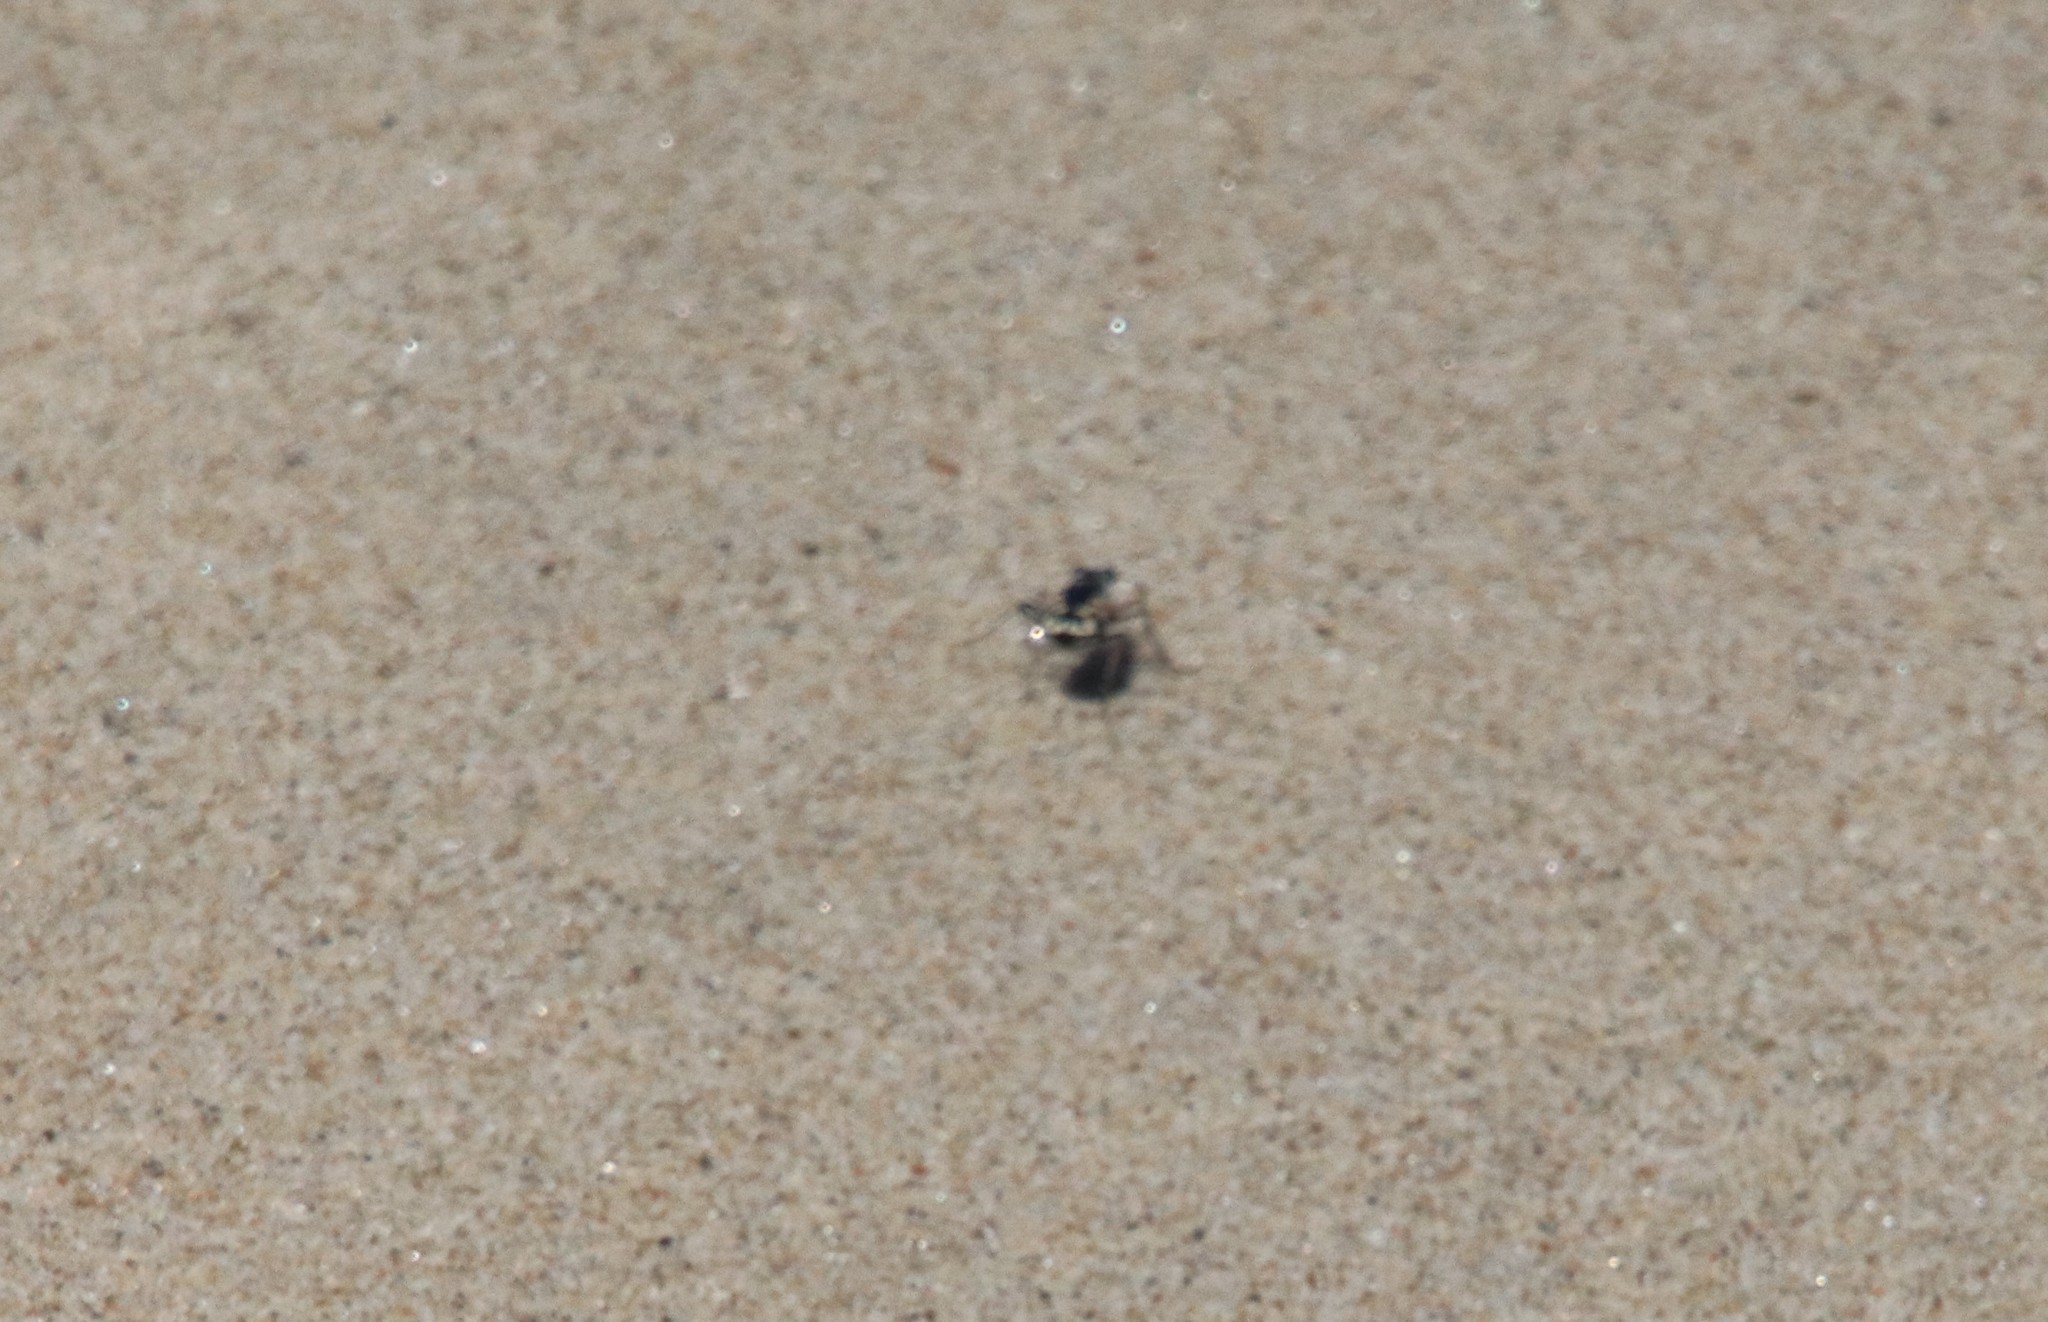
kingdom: Animalia
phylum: Arthropoda
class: Insecta
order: Coleoptera
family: Carabidae
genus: Cicindela
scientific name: Cicindela latesignata
